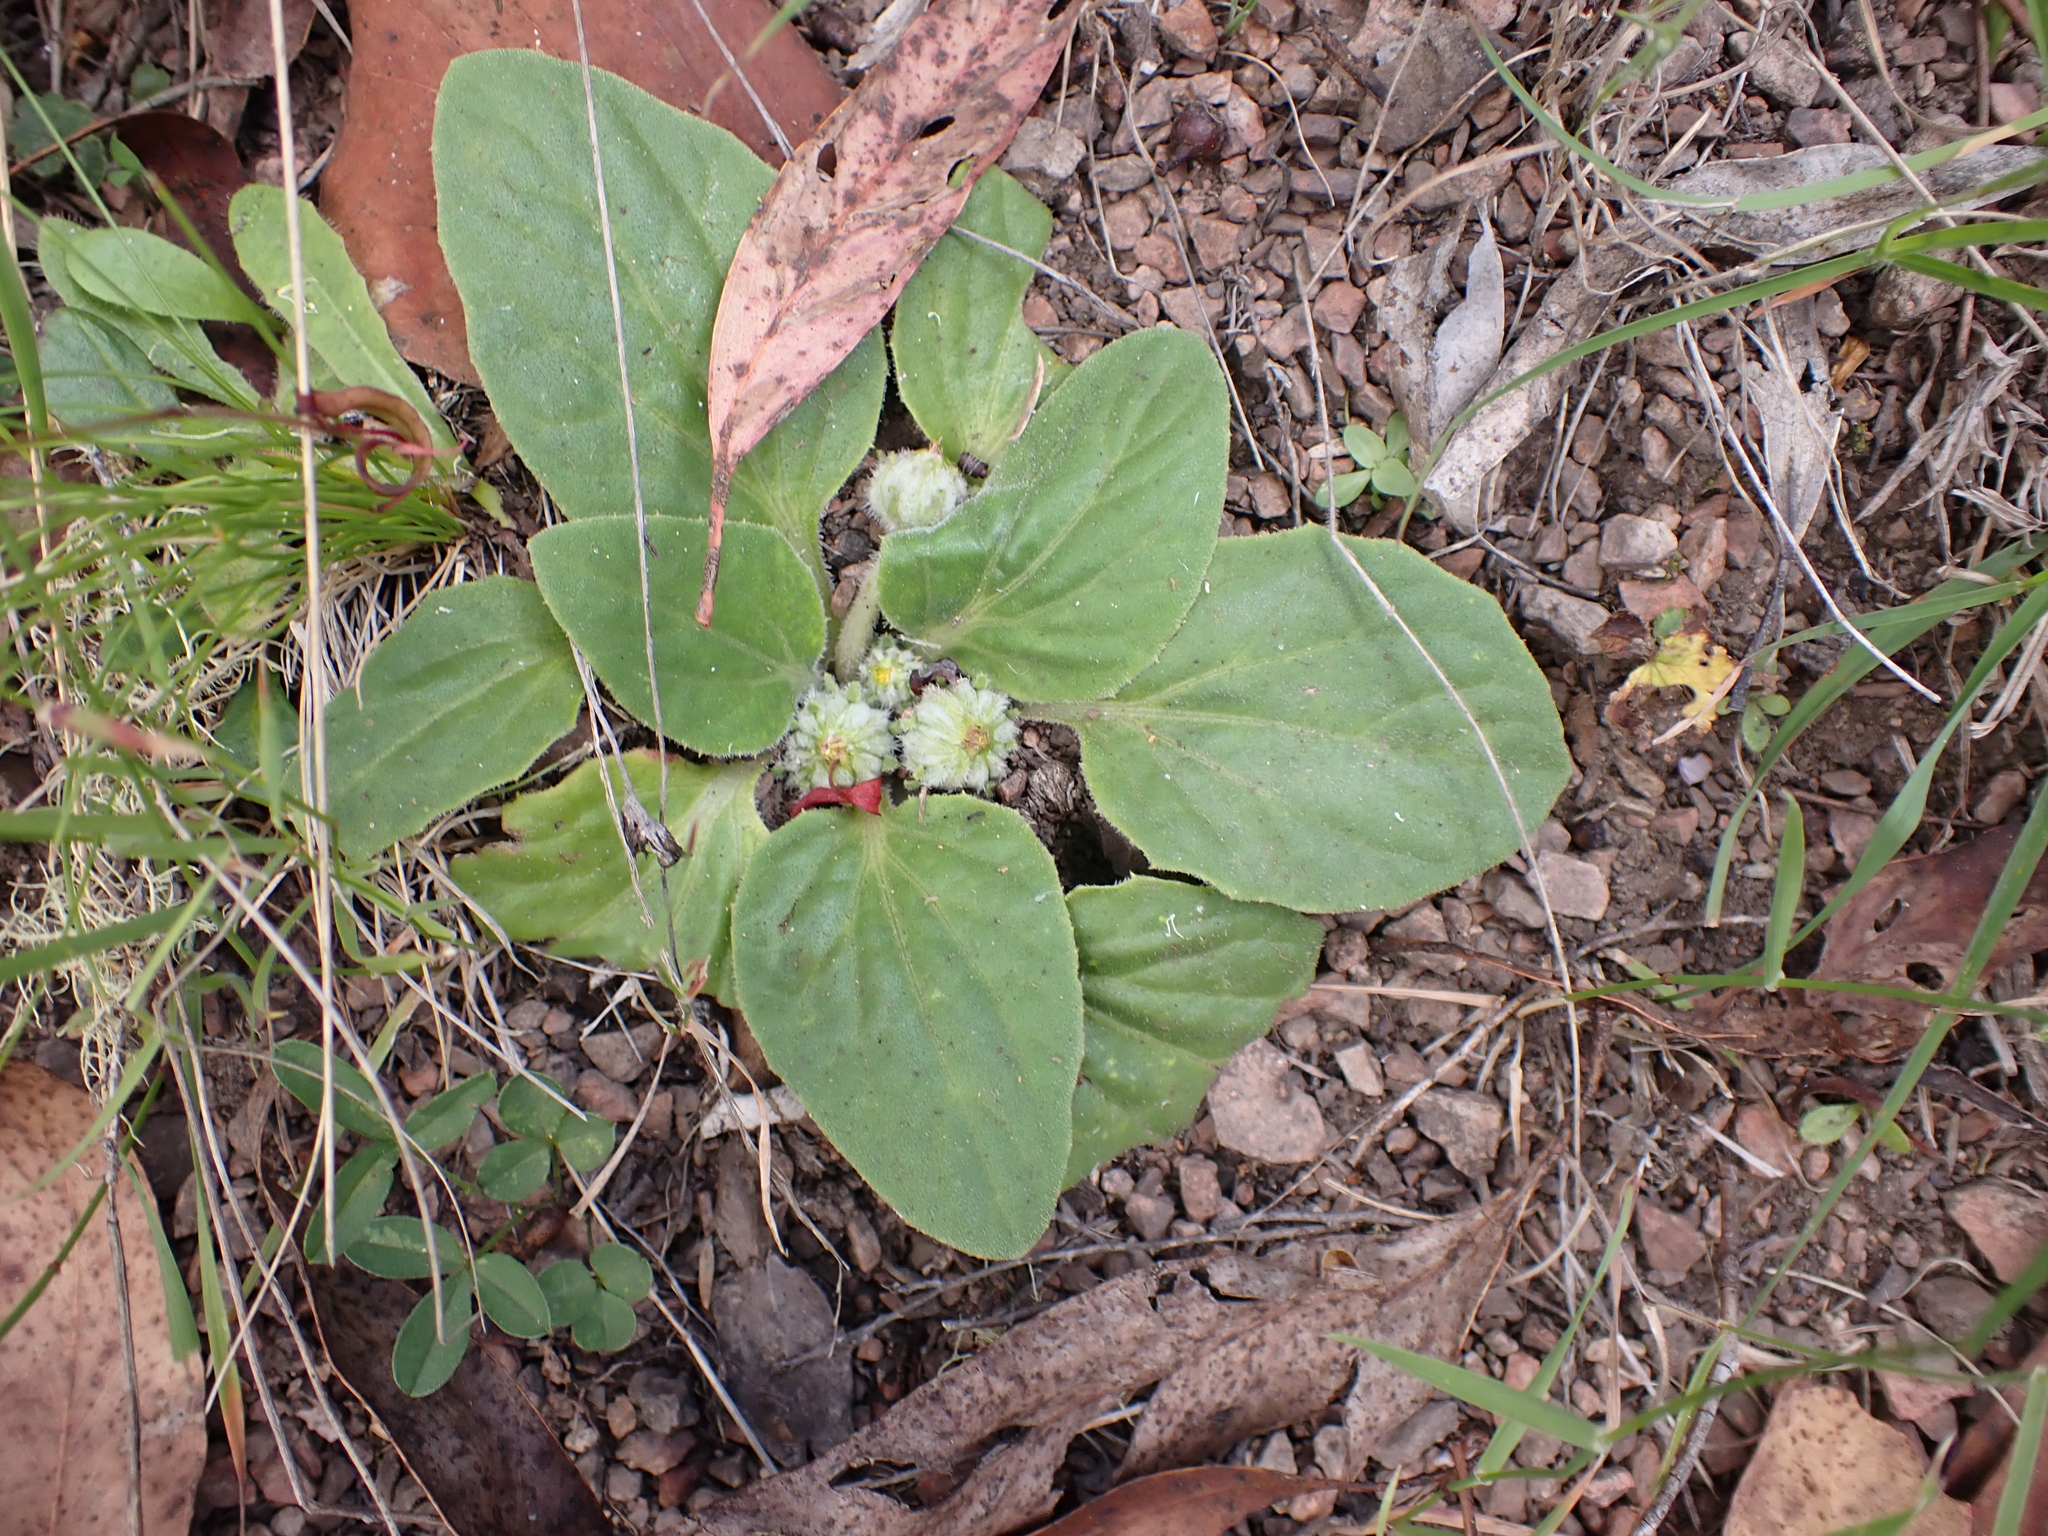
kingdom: Plantae
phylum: Tracheophyta
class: Magnoliopsida
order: Asterales
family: Asteraceae
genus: Cymbonotus
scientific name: Cymbonotus preissianus
